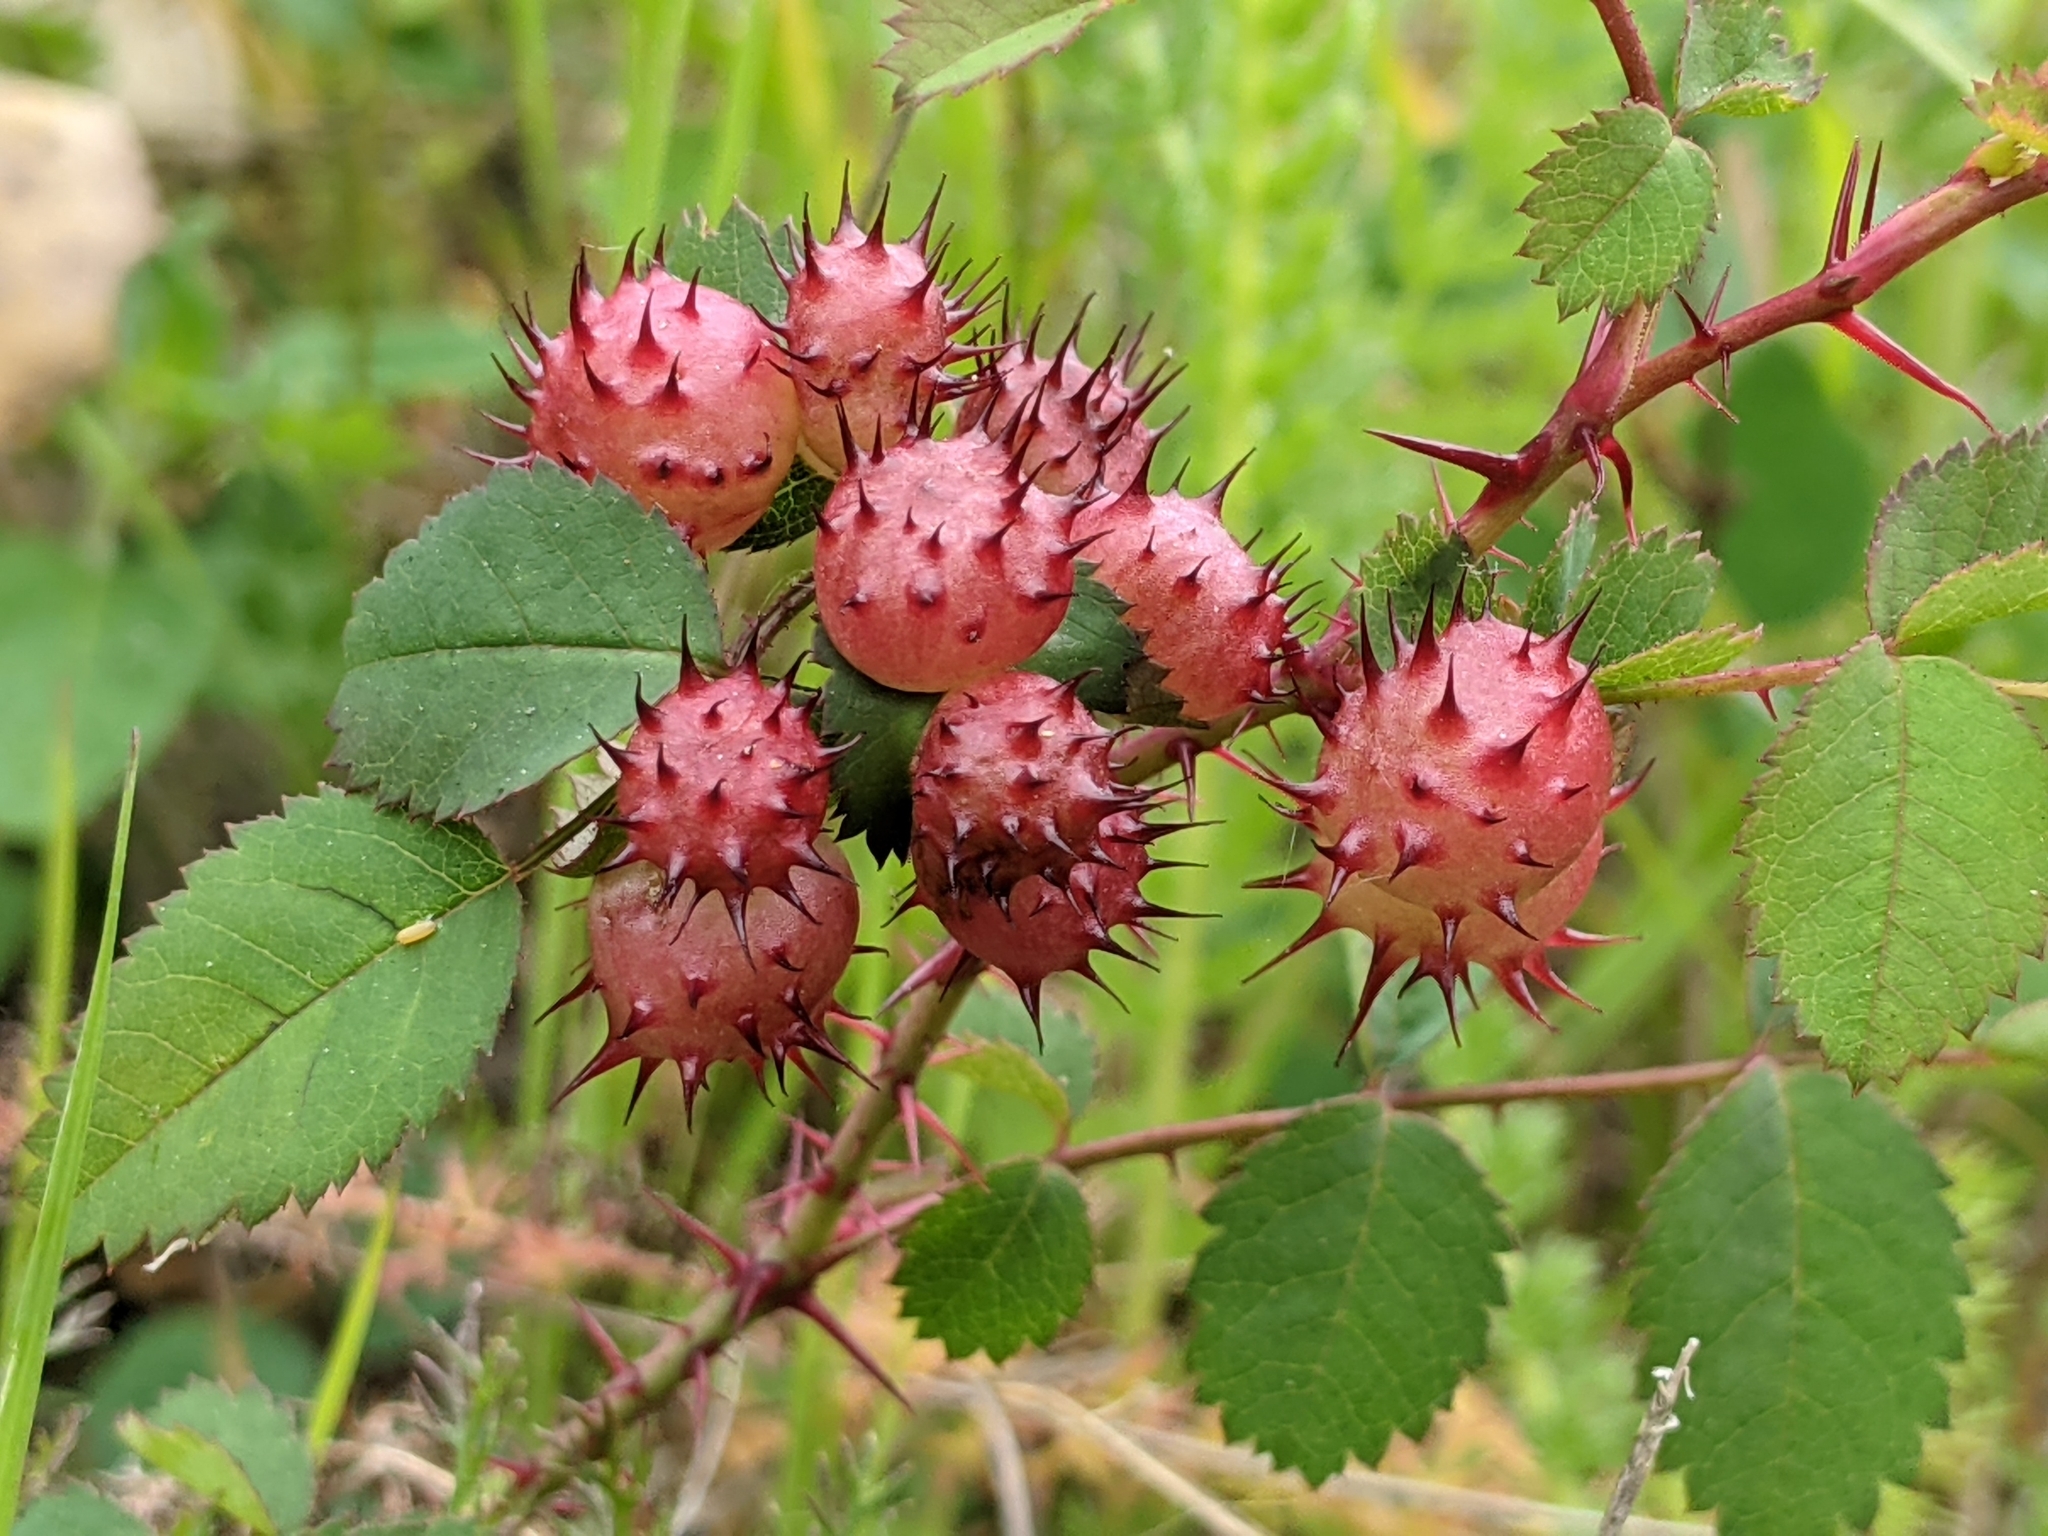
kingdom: Animalia
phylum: Arthropoda
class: Insecta
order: Hymenoptera
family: Cynipidae
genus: Diplolepis
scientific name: Diplolepis polita
